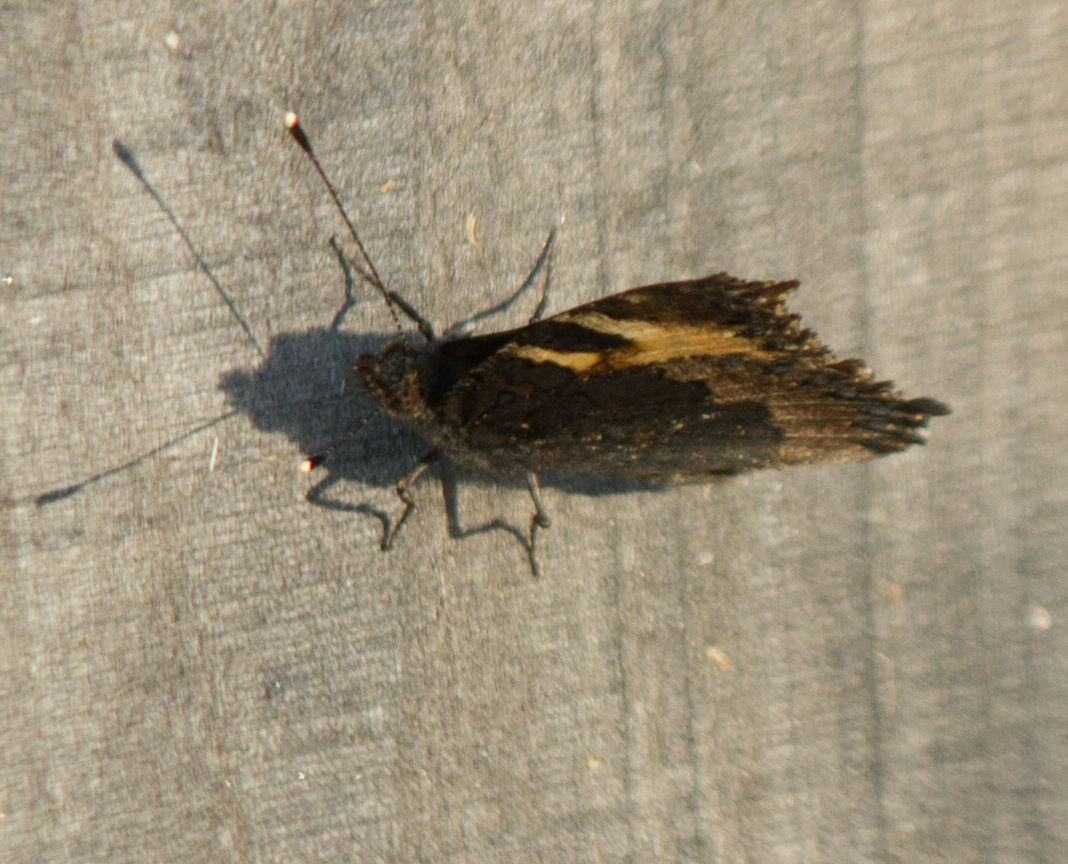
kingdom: Animalia
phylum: Arthropoda
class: Insecta
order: Lepidoptera
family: Nymphalidae
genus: Aglais
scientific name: Aglais urticae
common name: Small tortoiseshell
